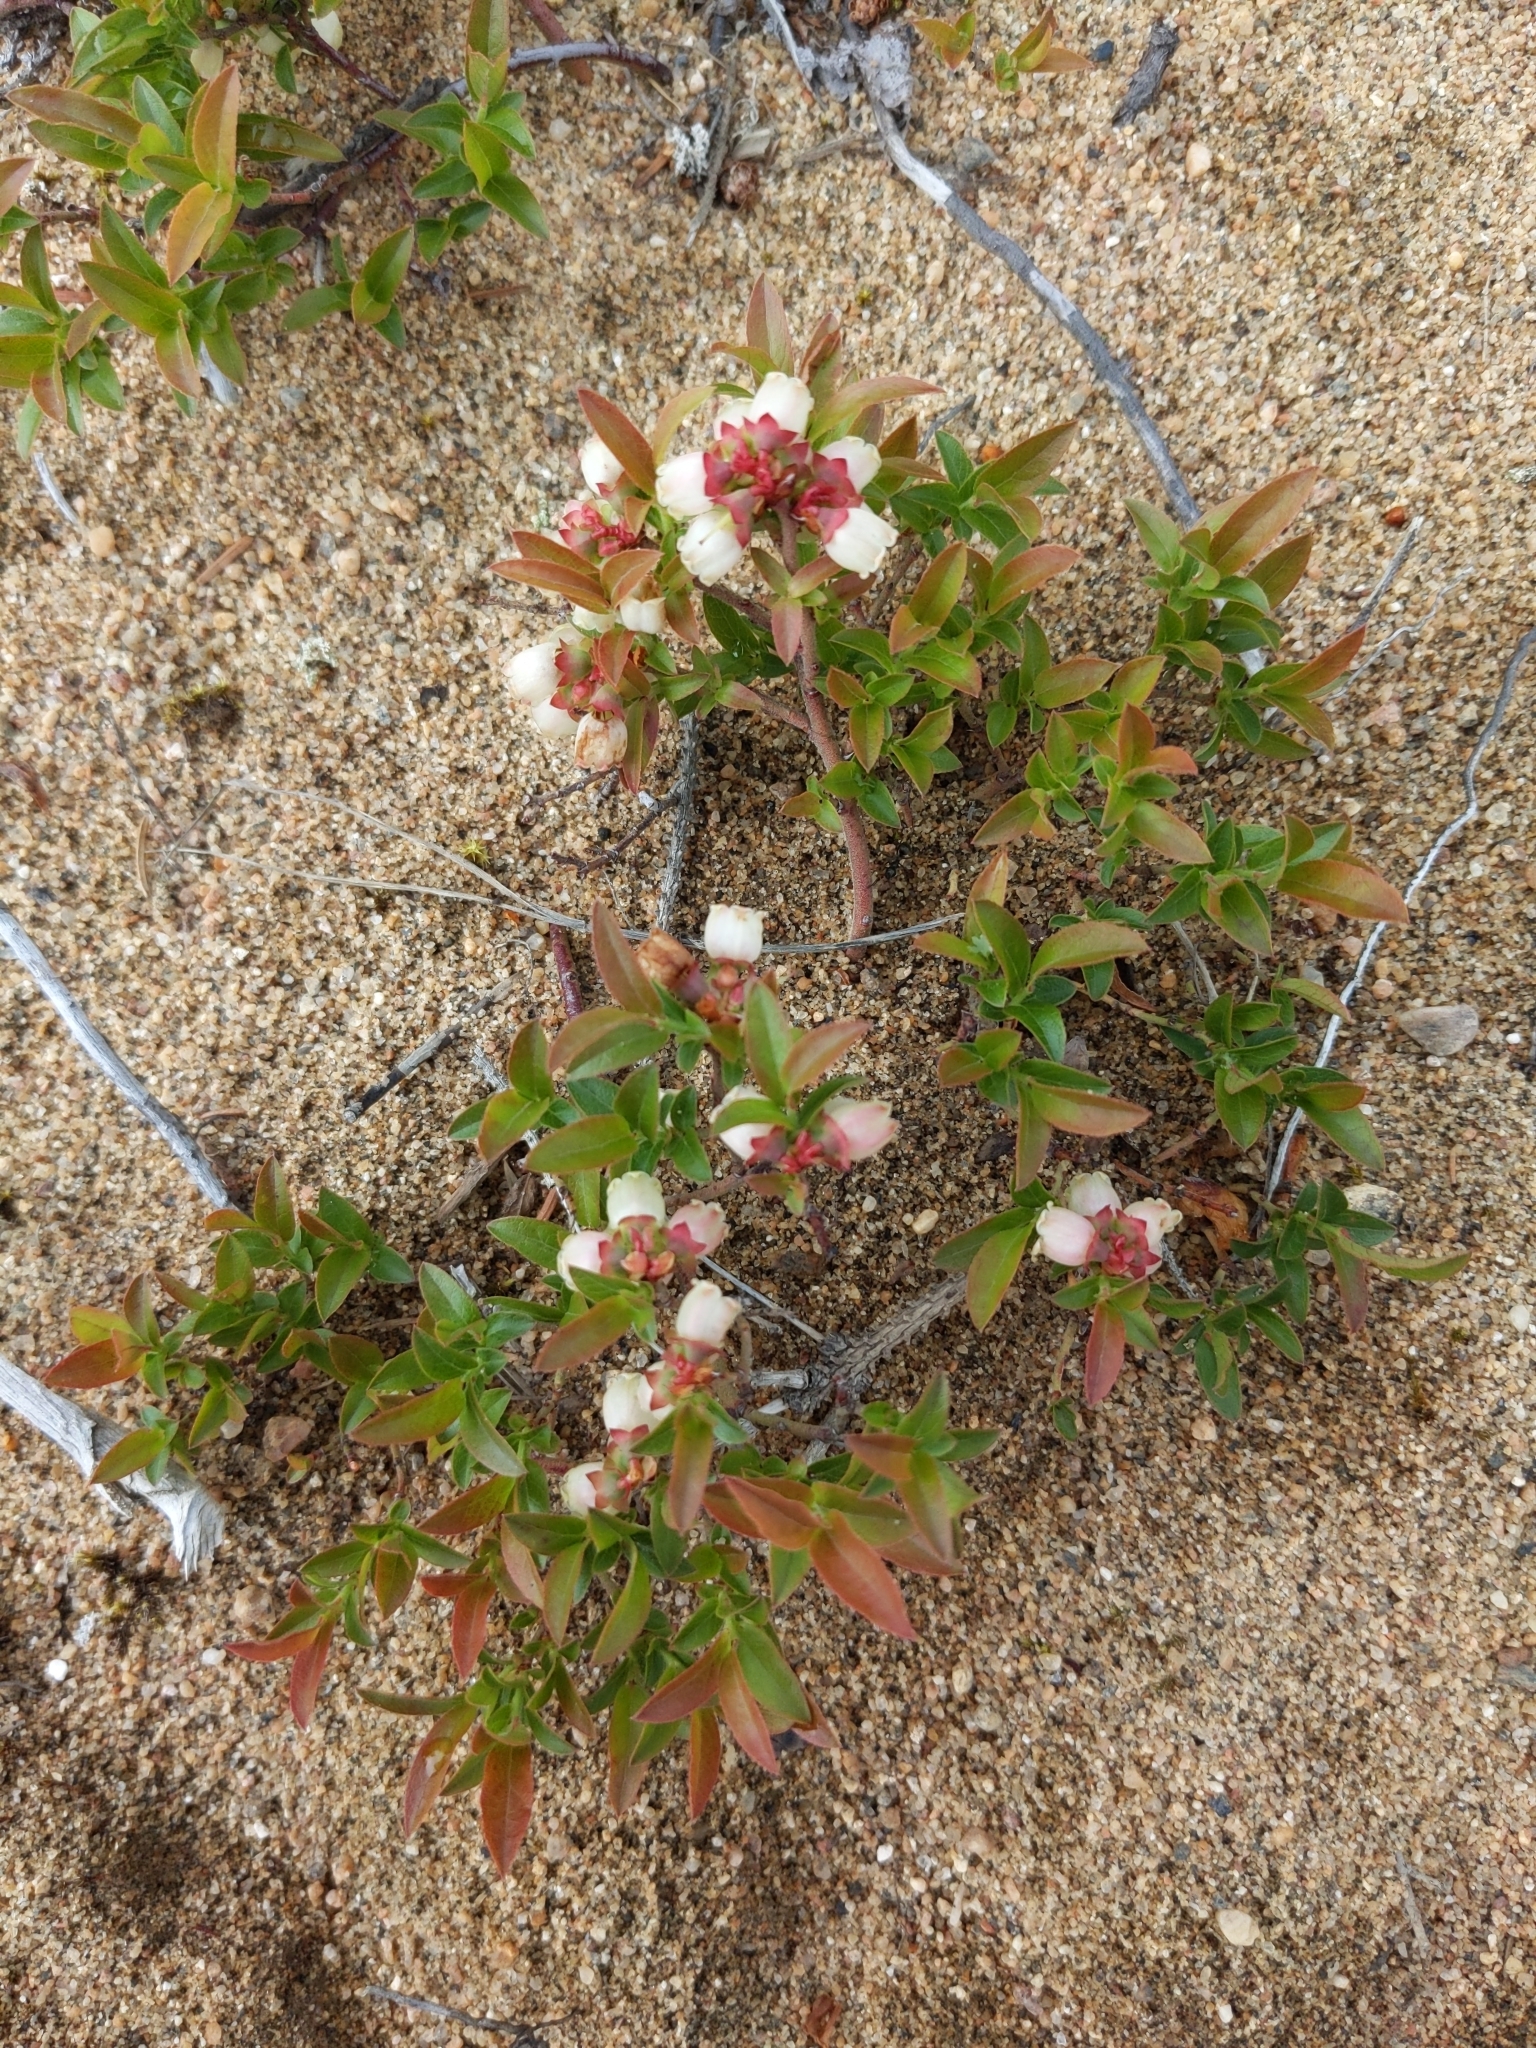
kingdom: Plantae
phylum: Tracheophyta
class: Magnoliopsida
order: Ericales
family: Ericaceae
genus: Vaccinium
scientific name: Vaccinium boreale
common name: Northern blueberry
